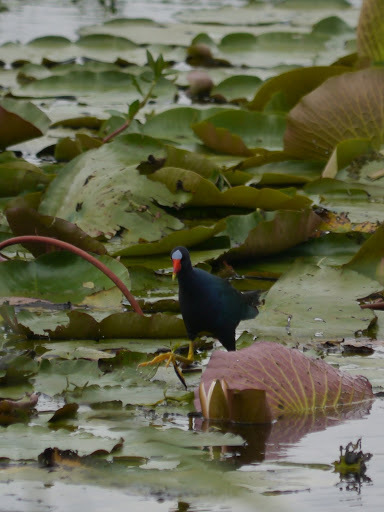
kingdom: Animalia
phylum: Chordata
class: Aves
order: Gruiformes
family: Rallidae
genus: Porphyrio
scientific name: Porphyrio martinica
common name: Purple gallinule
